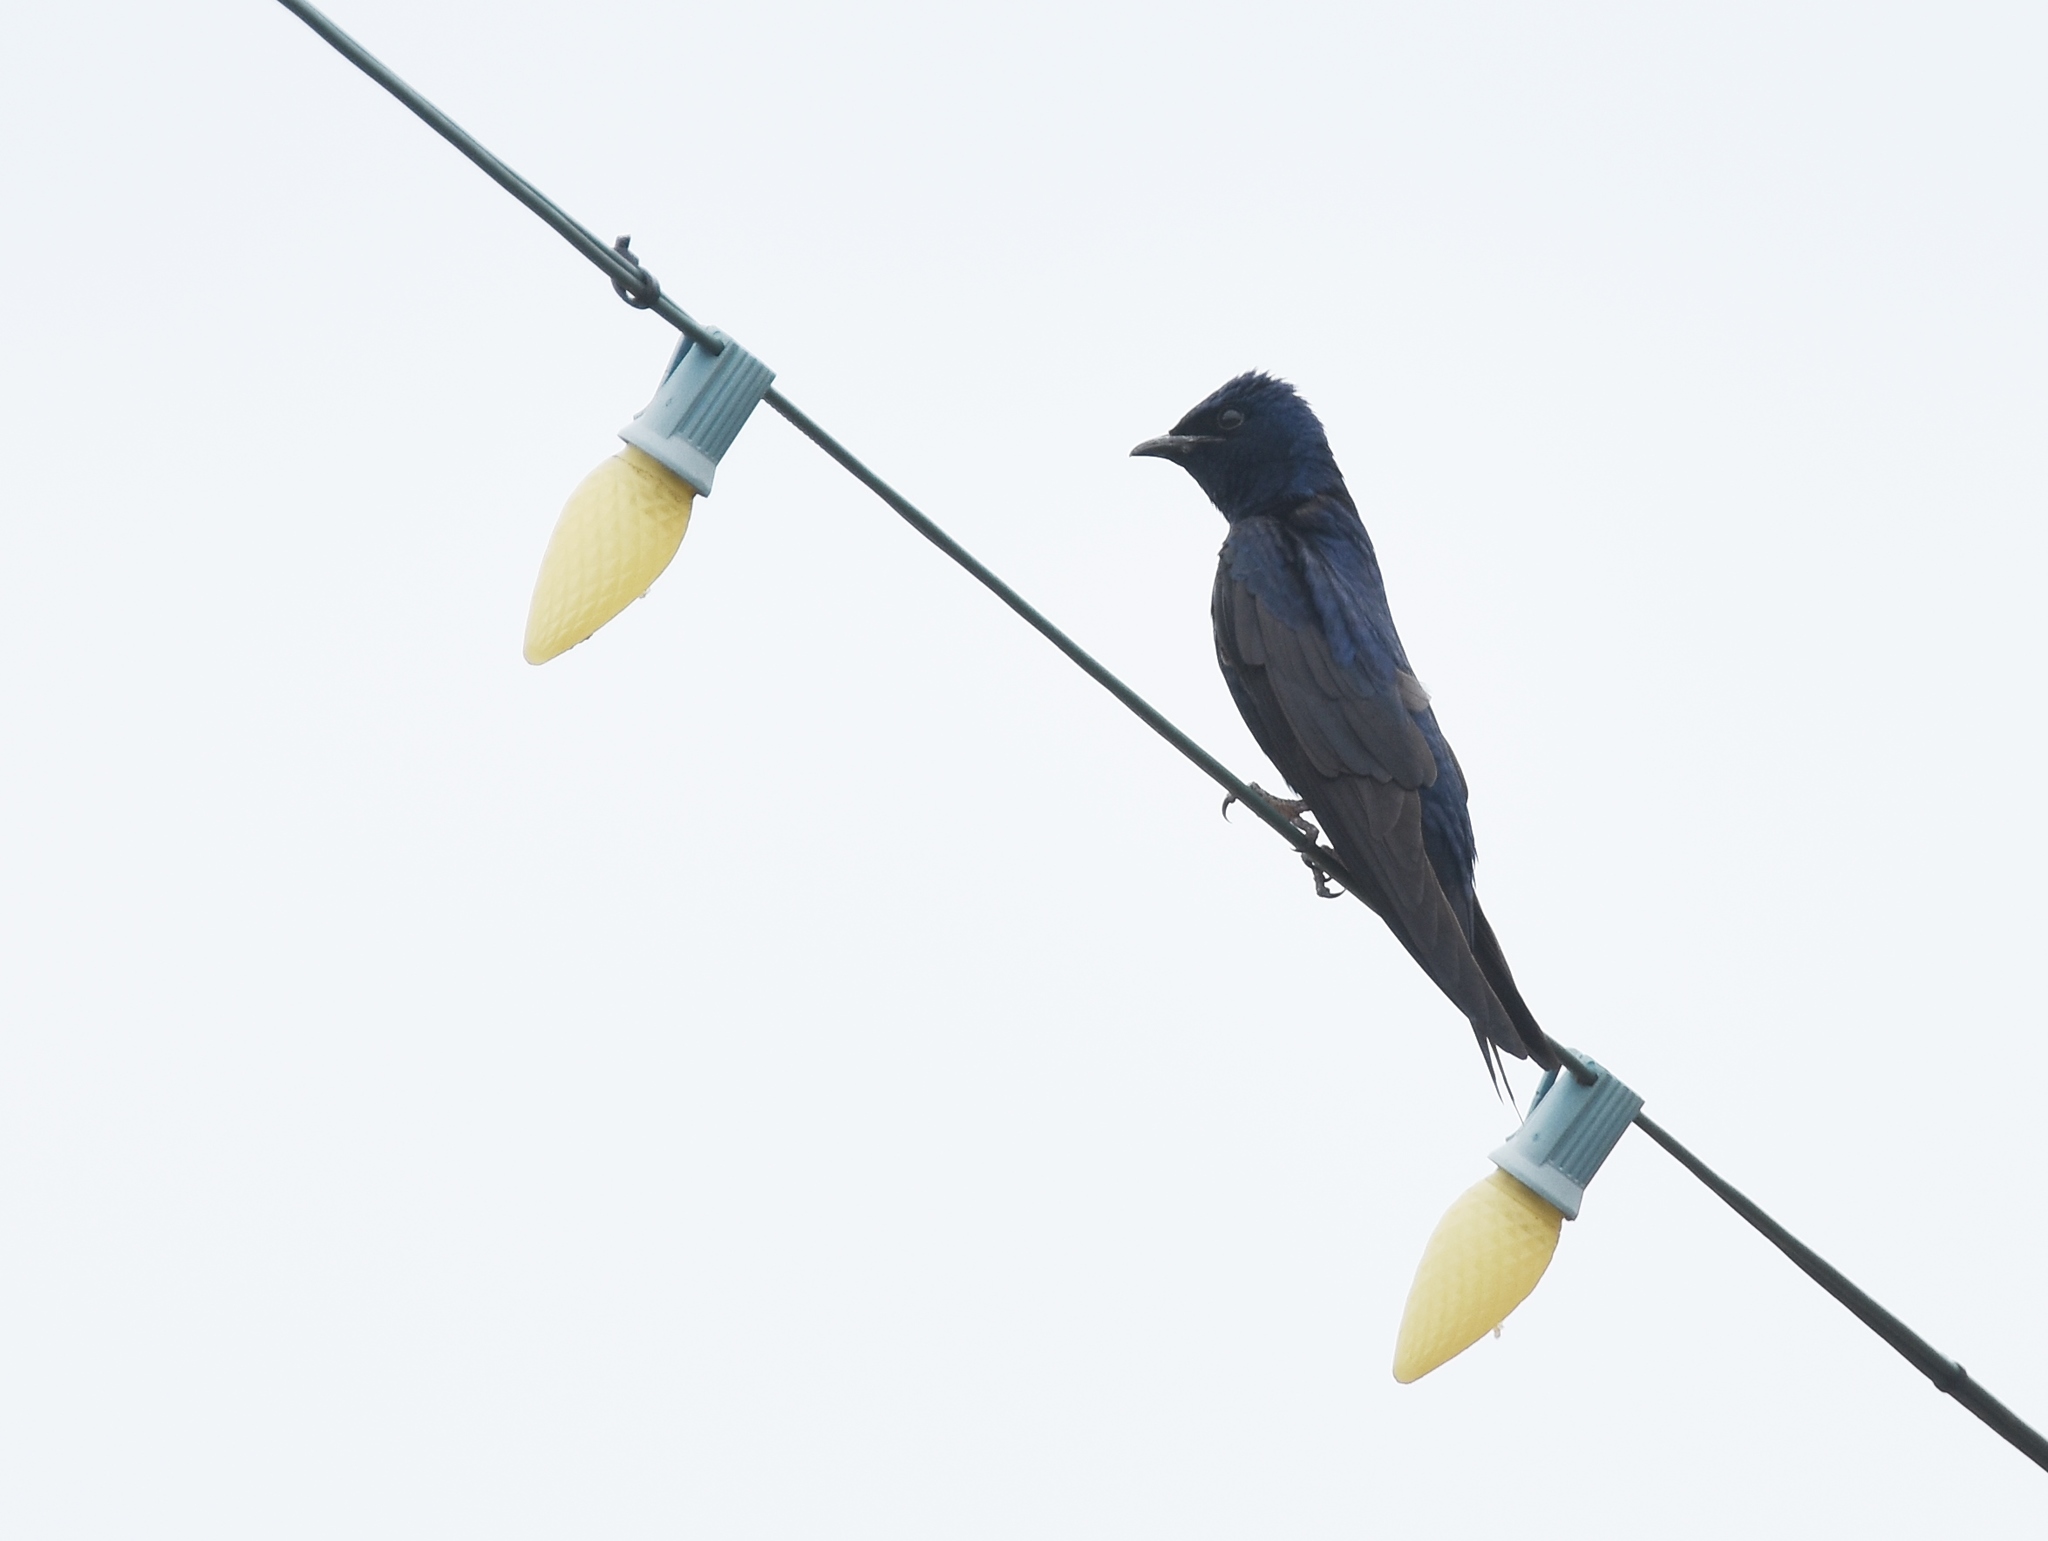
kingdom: Animalia
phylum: Chordata
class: Aves
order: Passeriformes
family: Hirundinidae
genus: Progne
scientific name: Progne subis
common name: Purple martin
